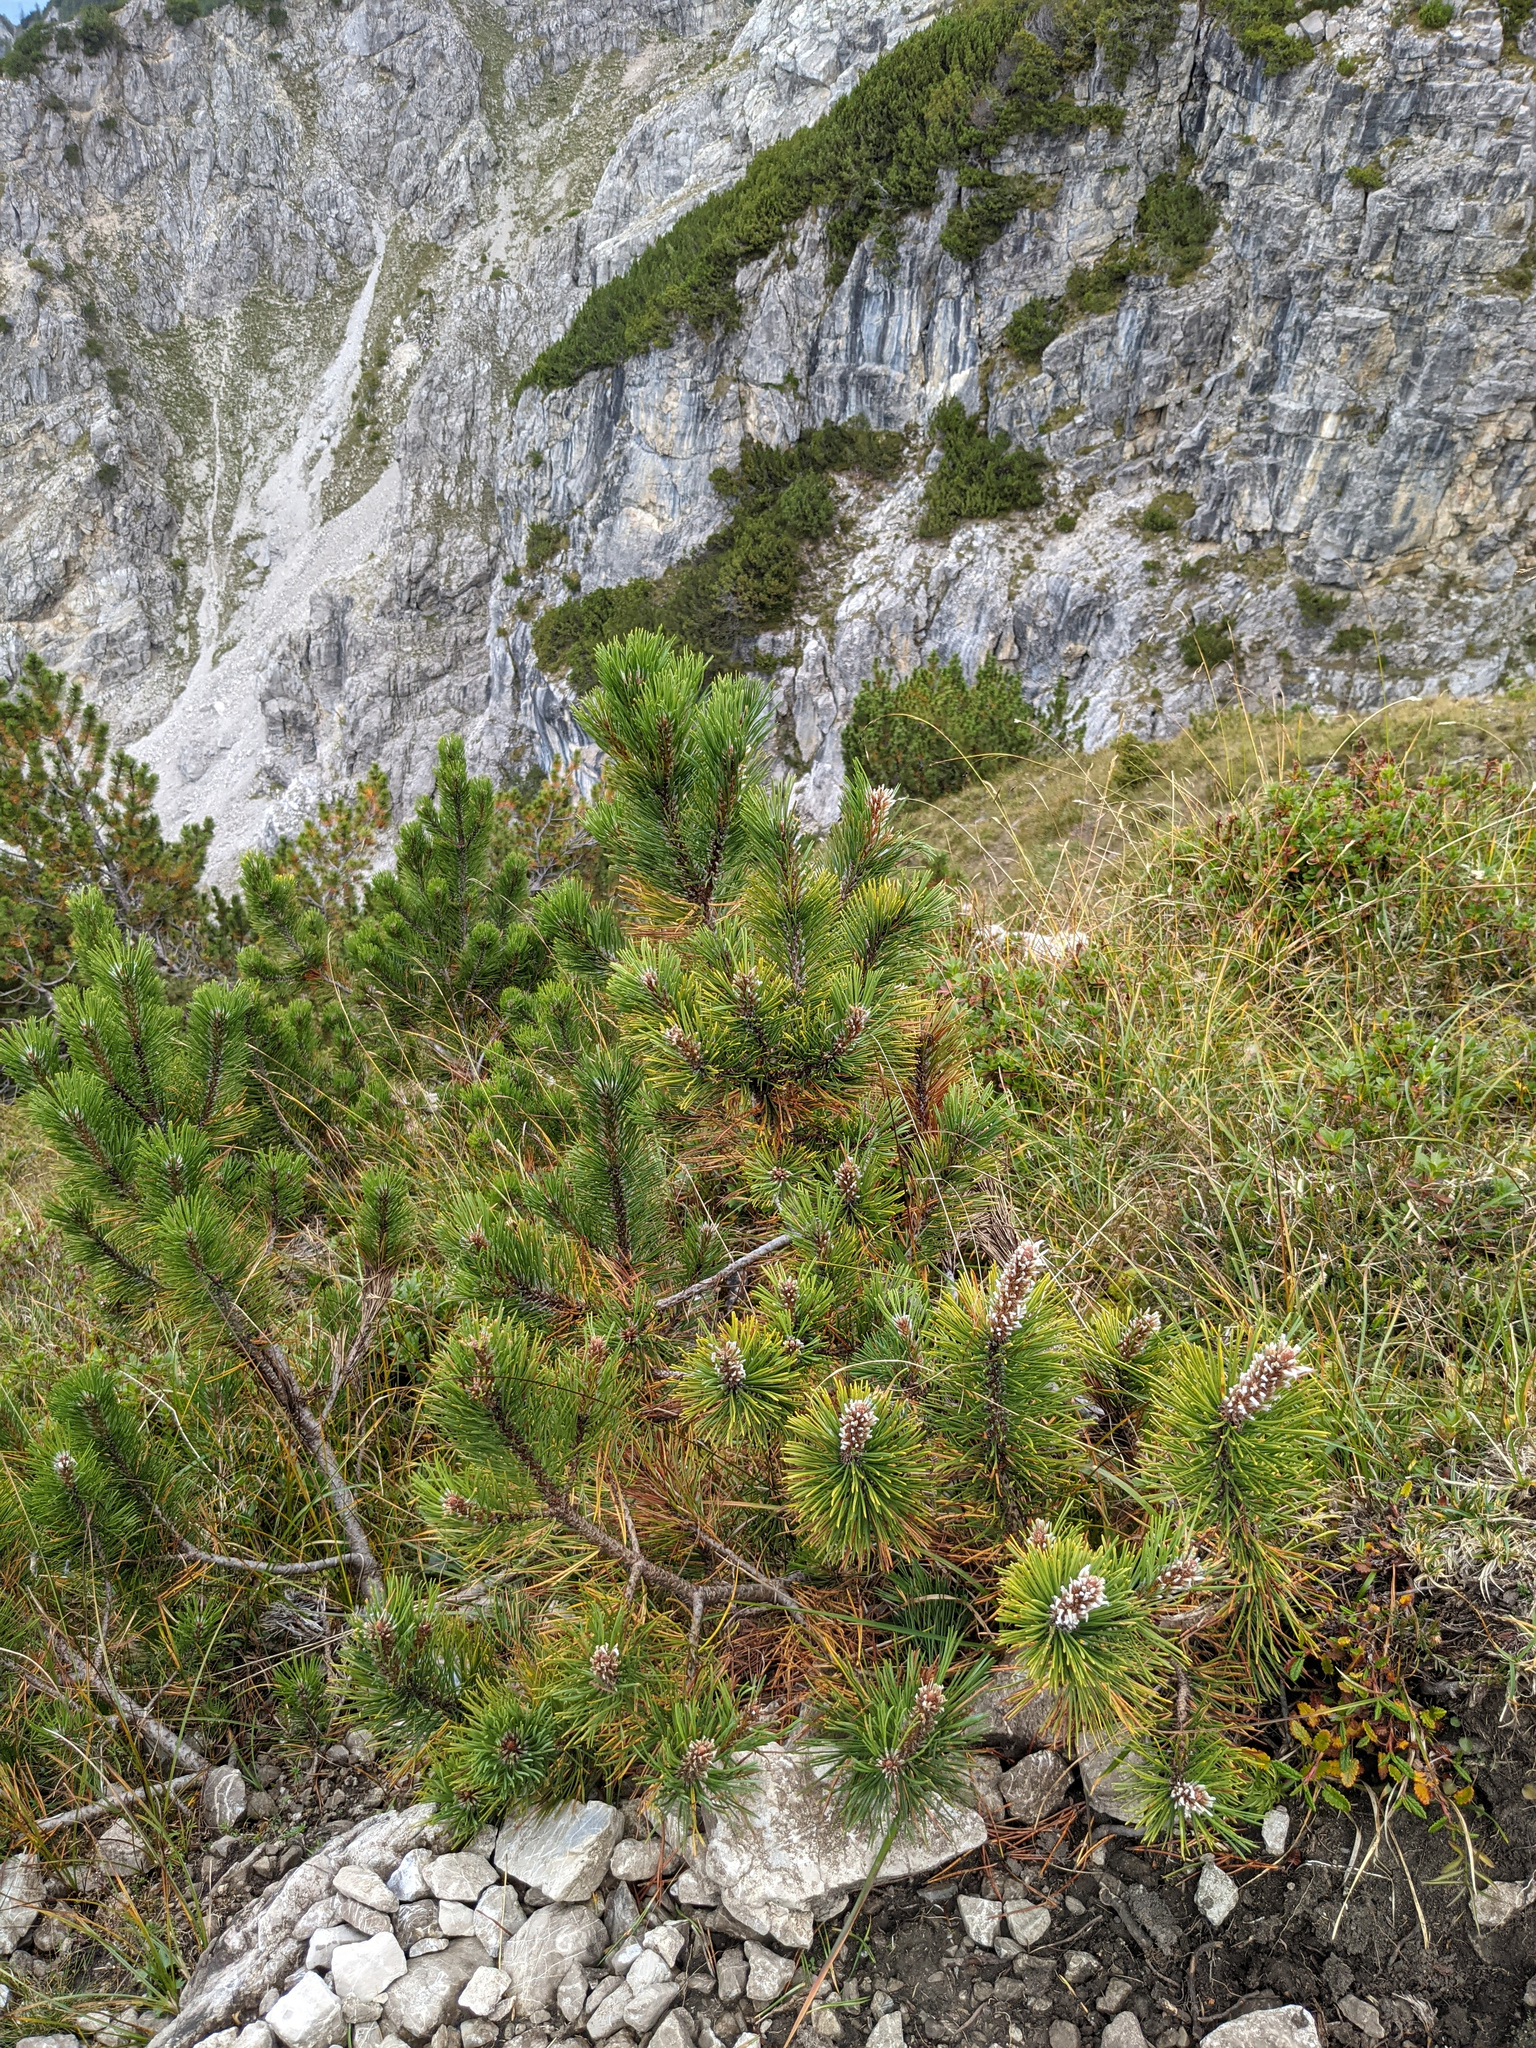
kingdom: Plantae
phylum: Tracheophyta
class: Pinopsida
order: Pinales
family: Pinaceae
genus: Pinus
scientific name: Pinus mugo
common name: Mugo pine
